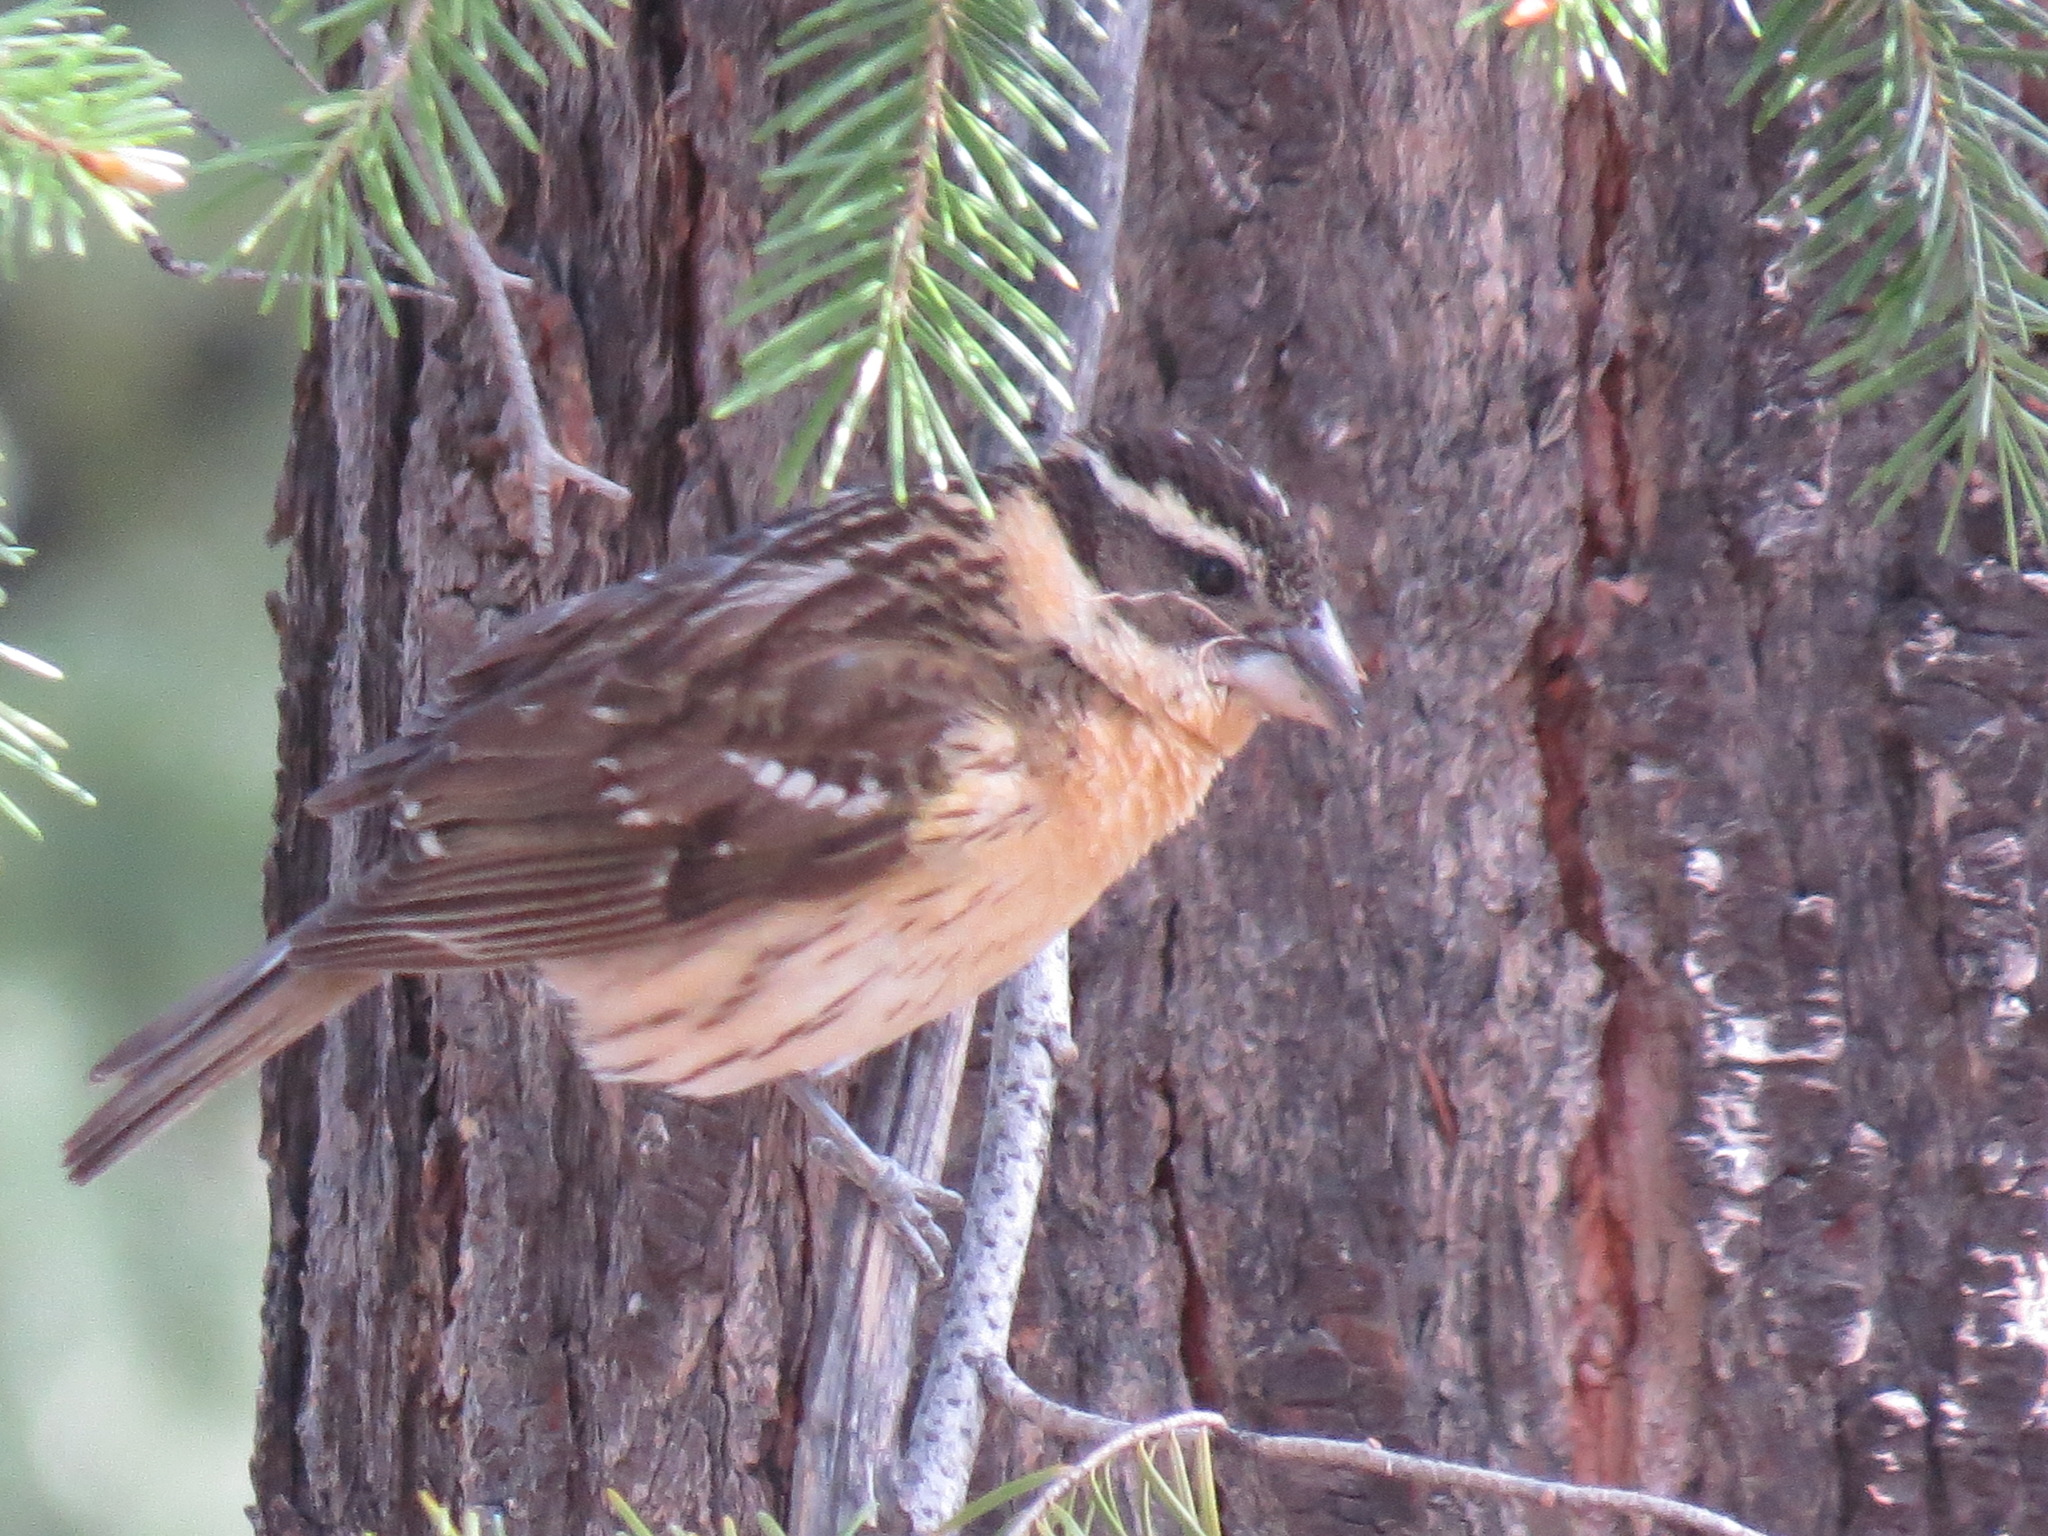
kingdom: Animalia
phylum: Chordata
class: Aves
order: Passeriformes
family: Cardinalidae
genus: Pheucticus
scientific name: Pheucticus melanocephalus
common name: Black-headed grosbeak
